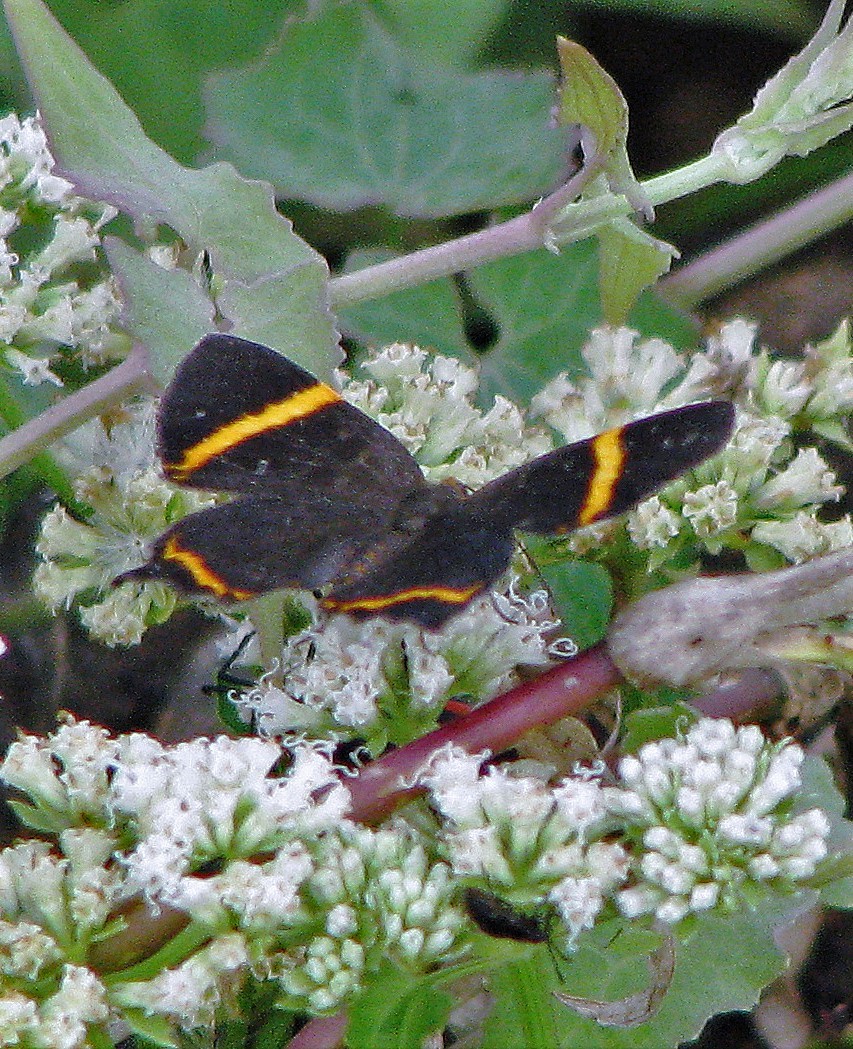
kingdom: Animalia
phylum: Arthropoda
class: Insecta
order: Lepidoptera
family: Riodinidae
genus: Riodina
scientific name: Riodina lysippoides
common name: Little dancer metalmark
